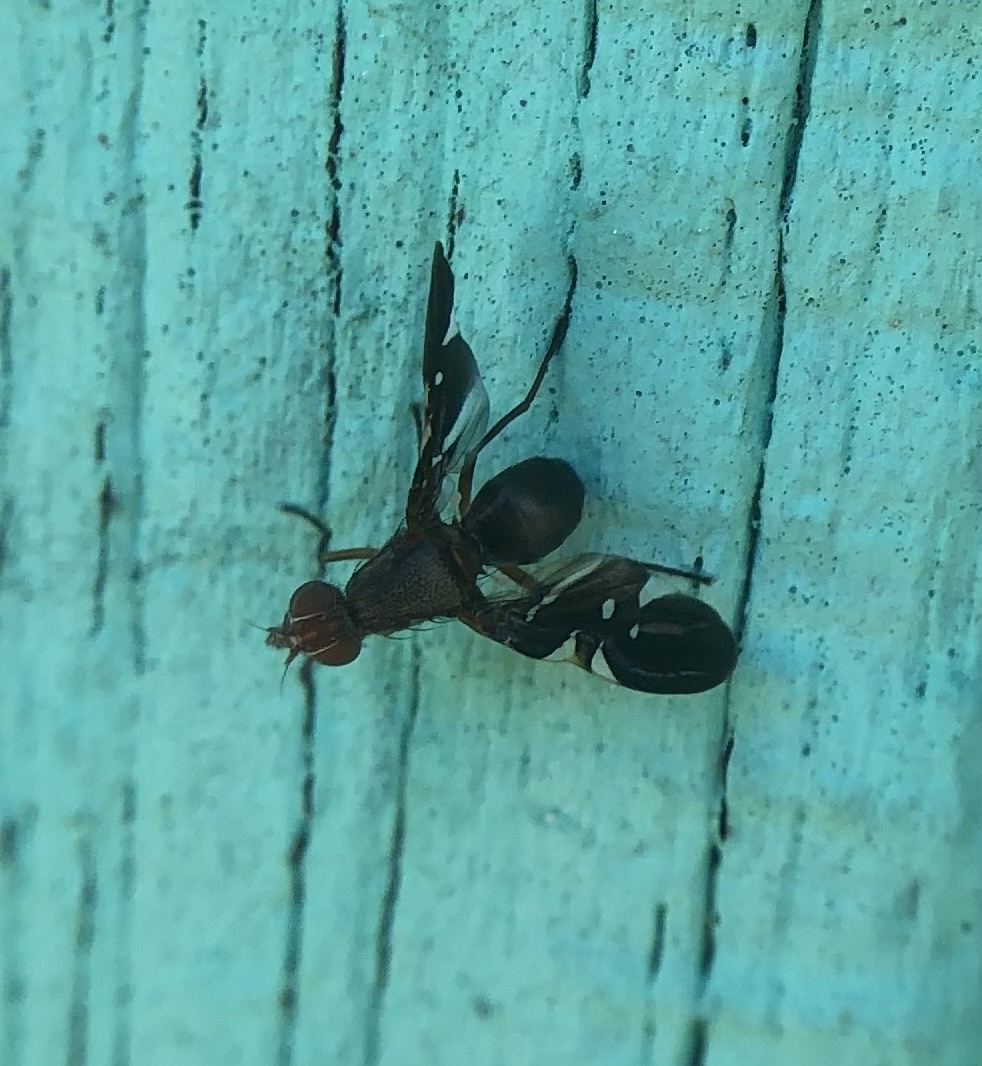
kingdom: Animalia
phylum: Arthropoda
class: Insecta
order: Diptera
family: Ulidiidae
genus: Delphinia
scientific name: Delphinia picta
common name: Common picture-winged fly
